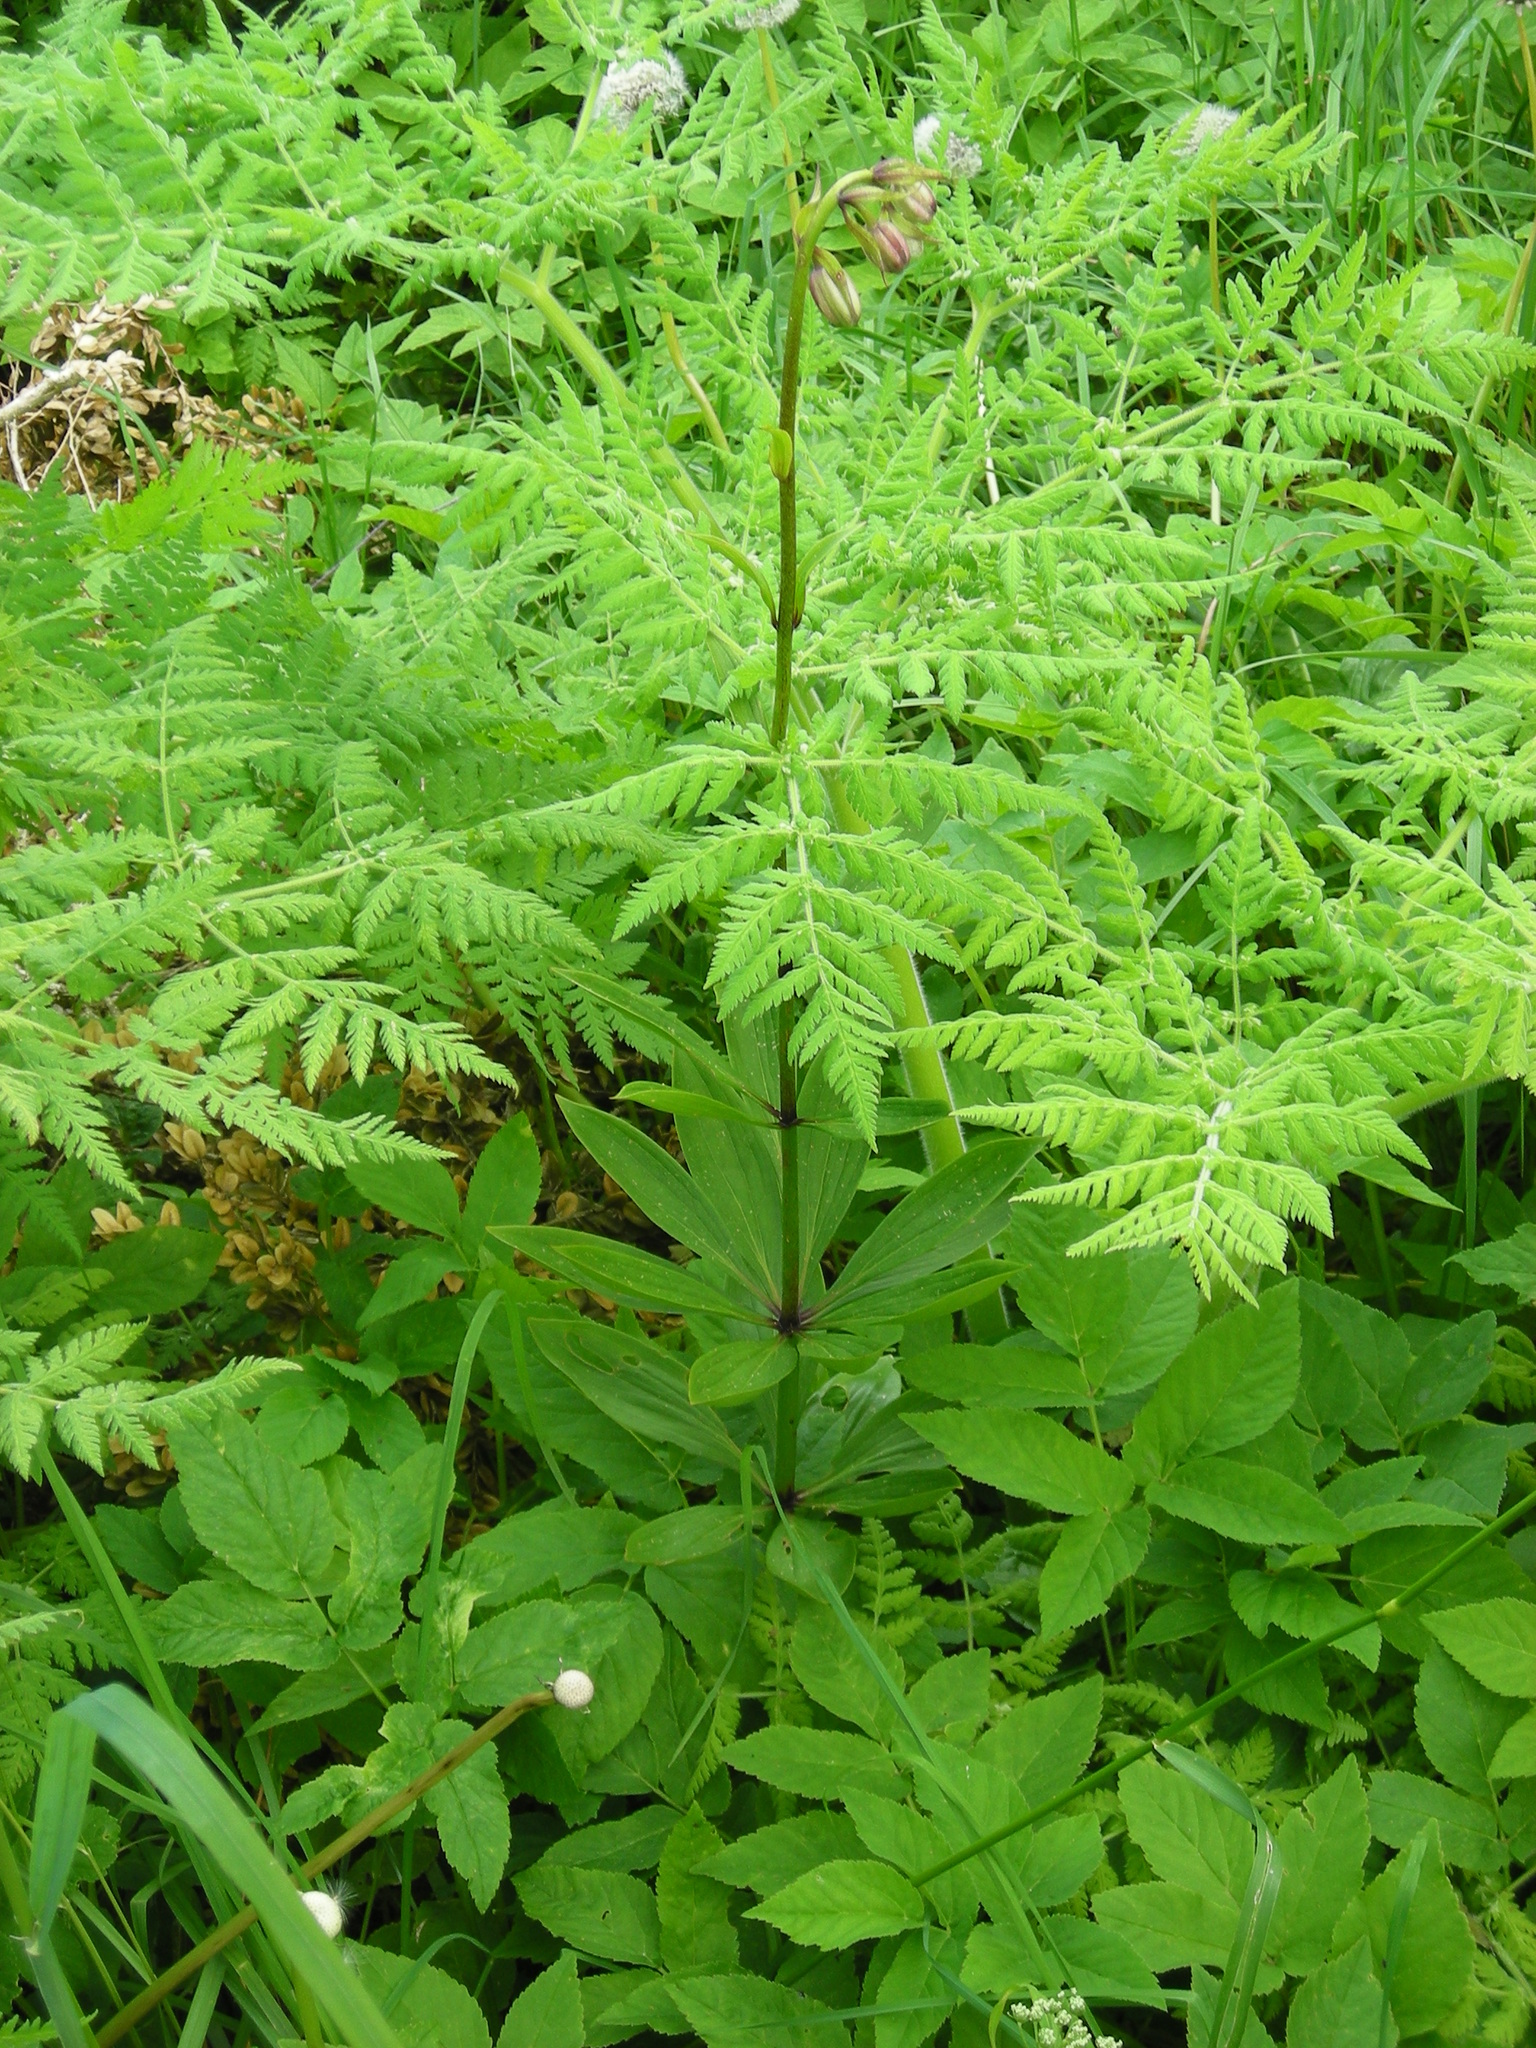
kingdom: Plantae
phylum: Tracheophyta
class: Magnoliopsida
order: Apiales
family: Apiaceae
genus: Myrrhis
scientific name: Myrrhis odorata
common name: Sweet cicely
